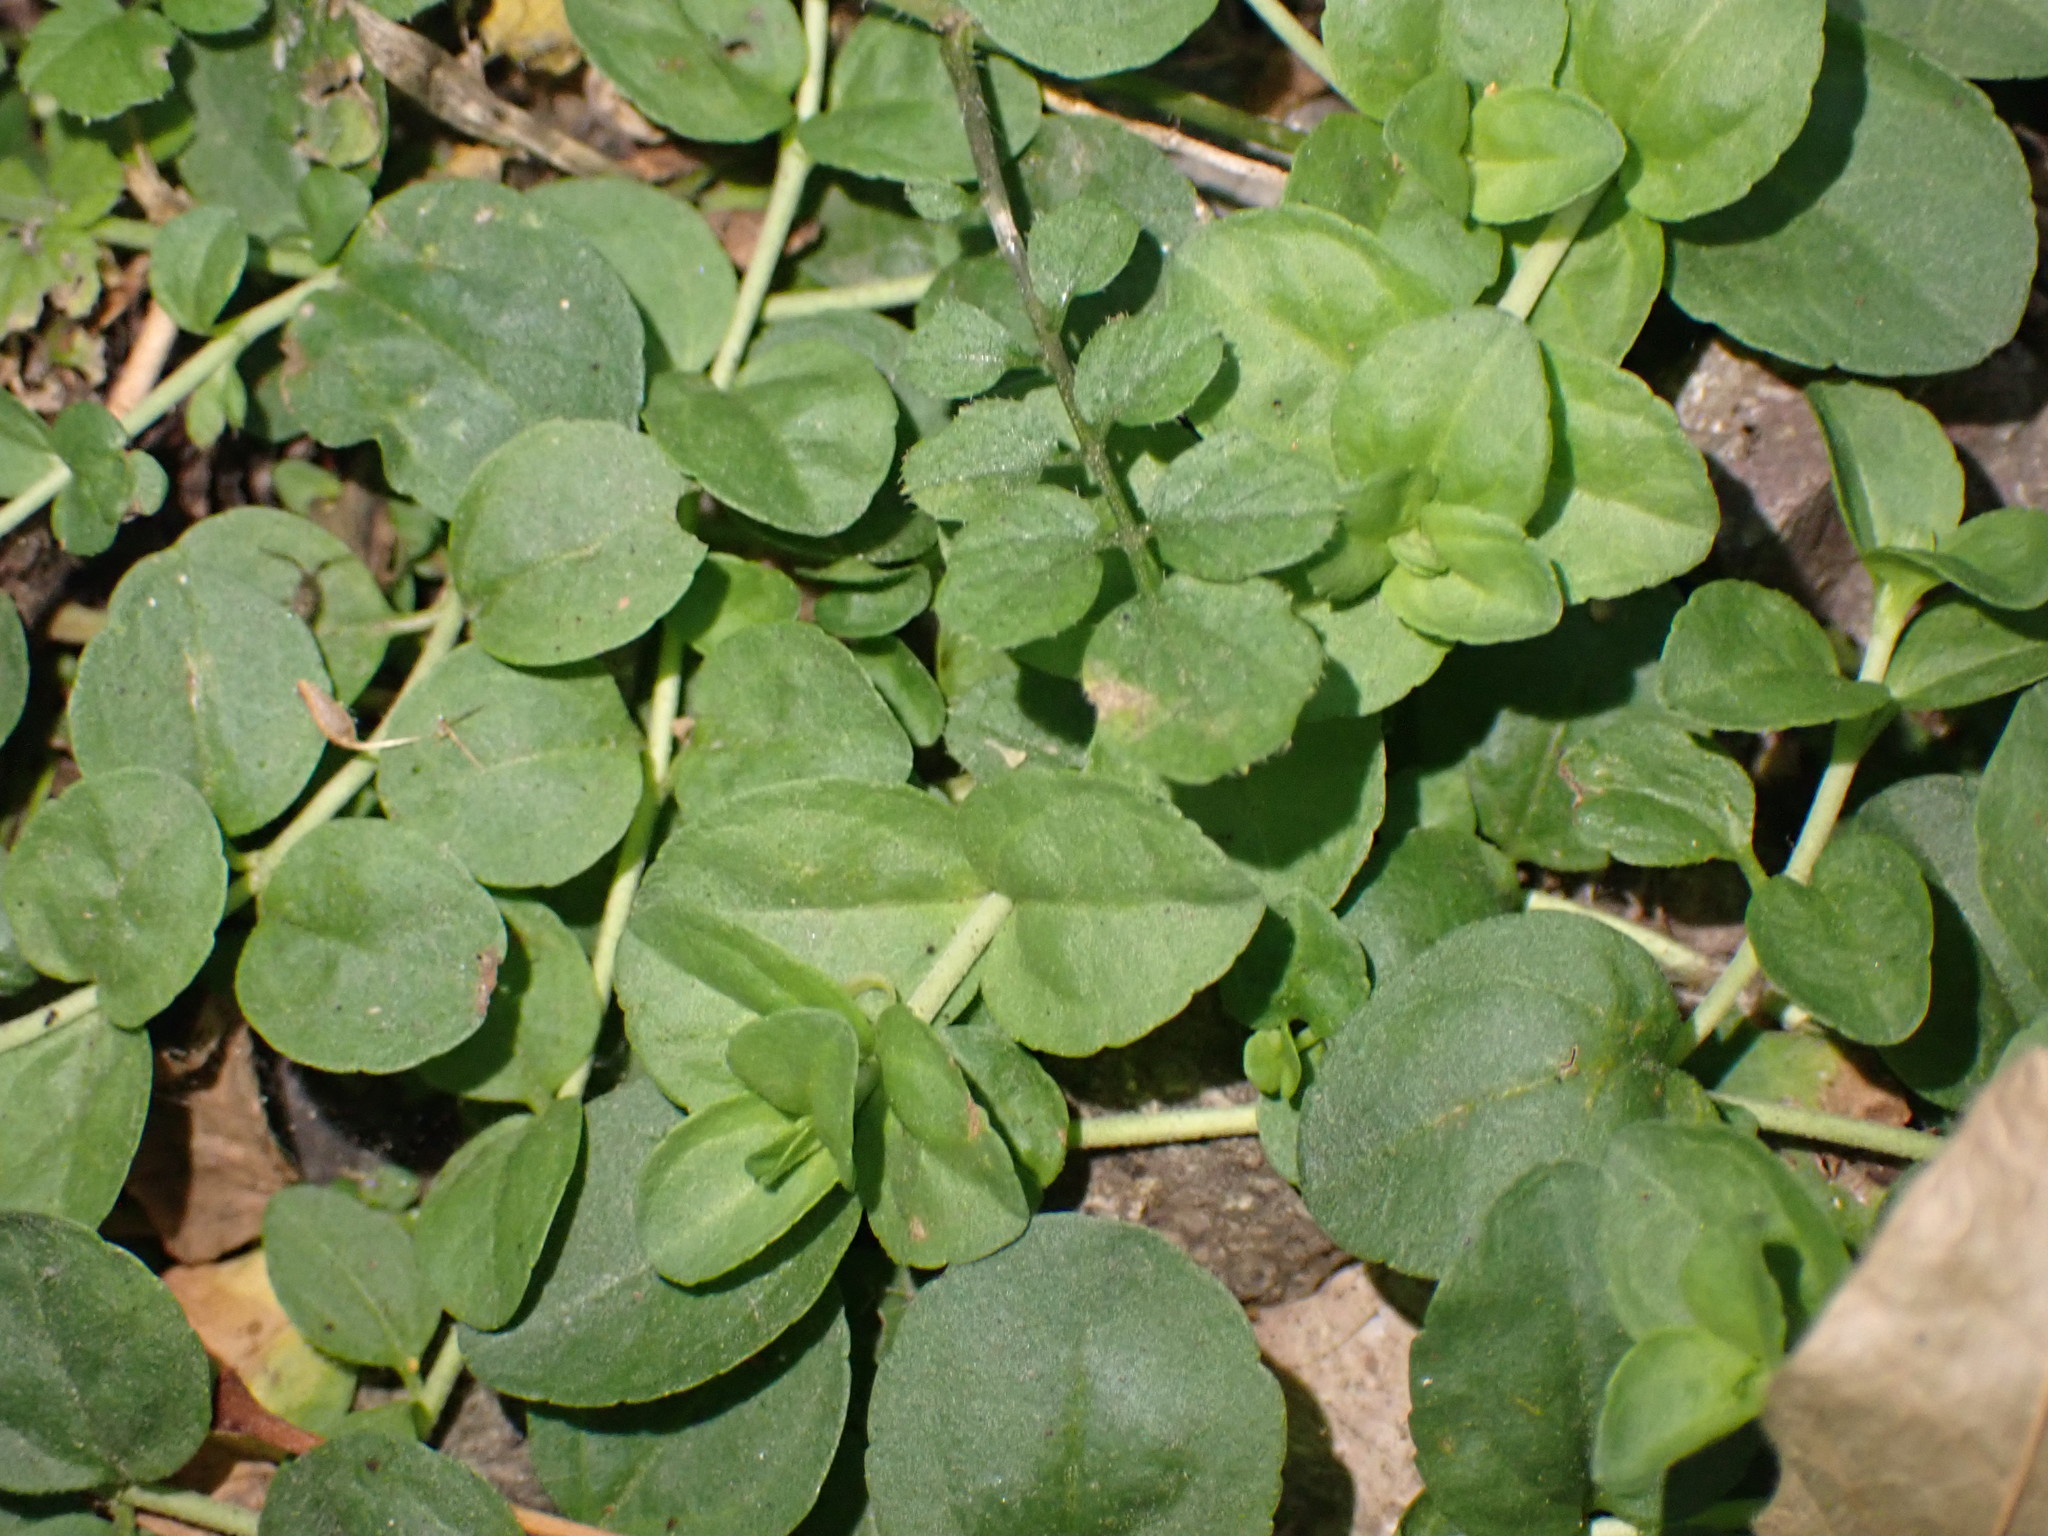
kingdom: Plantae
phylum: Tracheophyta
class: Magnoliopsida
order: Brassicales
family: Brassicaceae
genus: Cardamine
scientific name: Cardamine flexuosa
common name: Woodland bittercress
